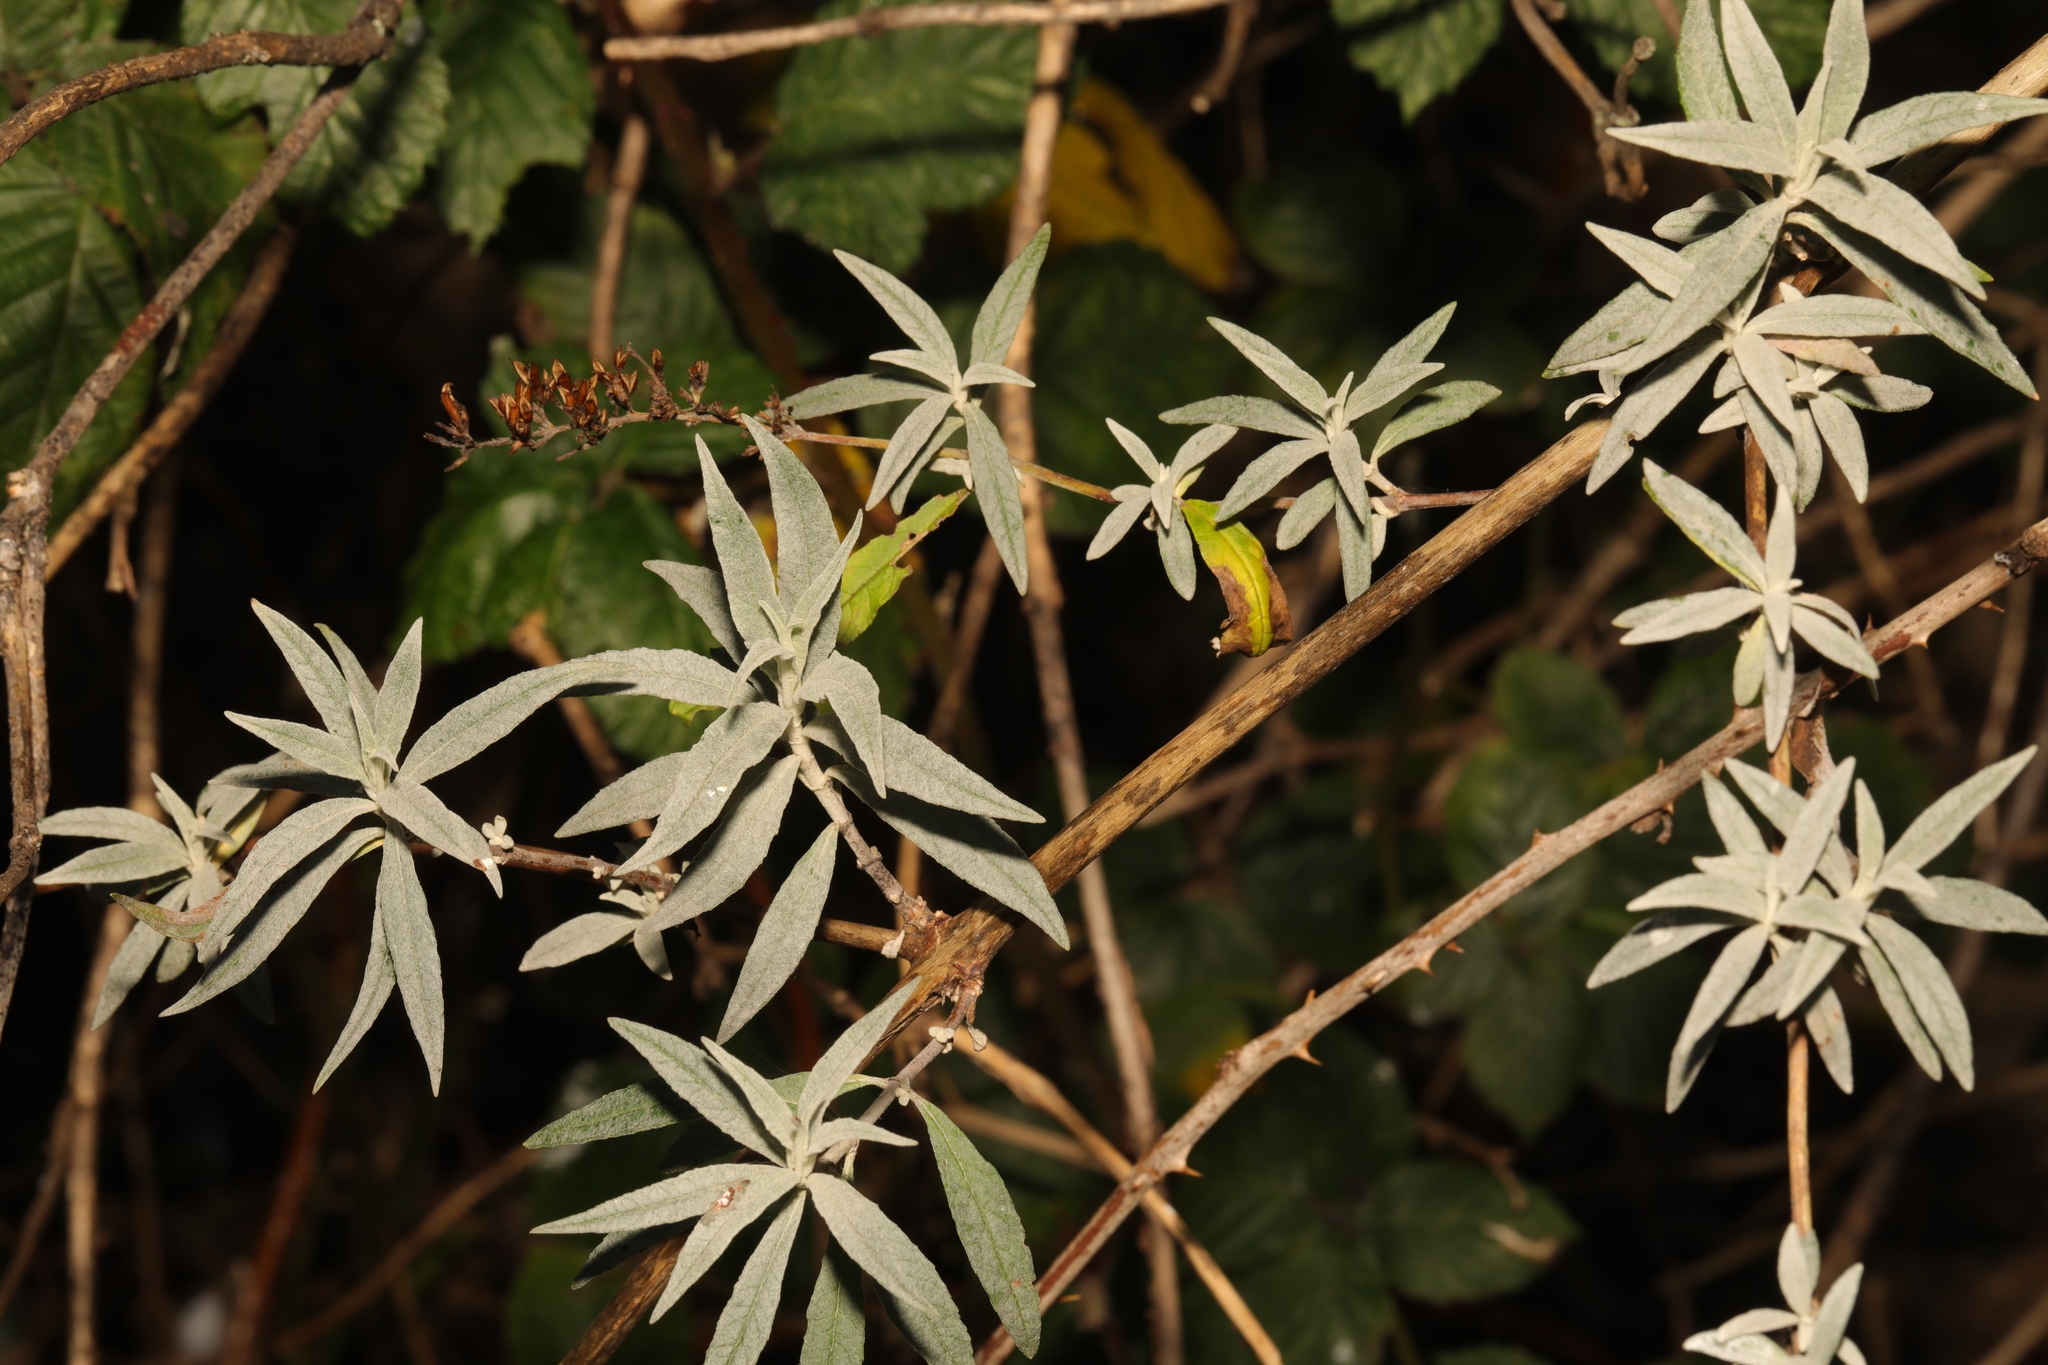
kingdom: Plantae
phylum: Tracheophyta
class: Magnoliopsida
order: Lamiales
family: Scrophulariaceae
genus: Buddleja
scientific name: Buddleja davidii
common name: Butterfly-bush
